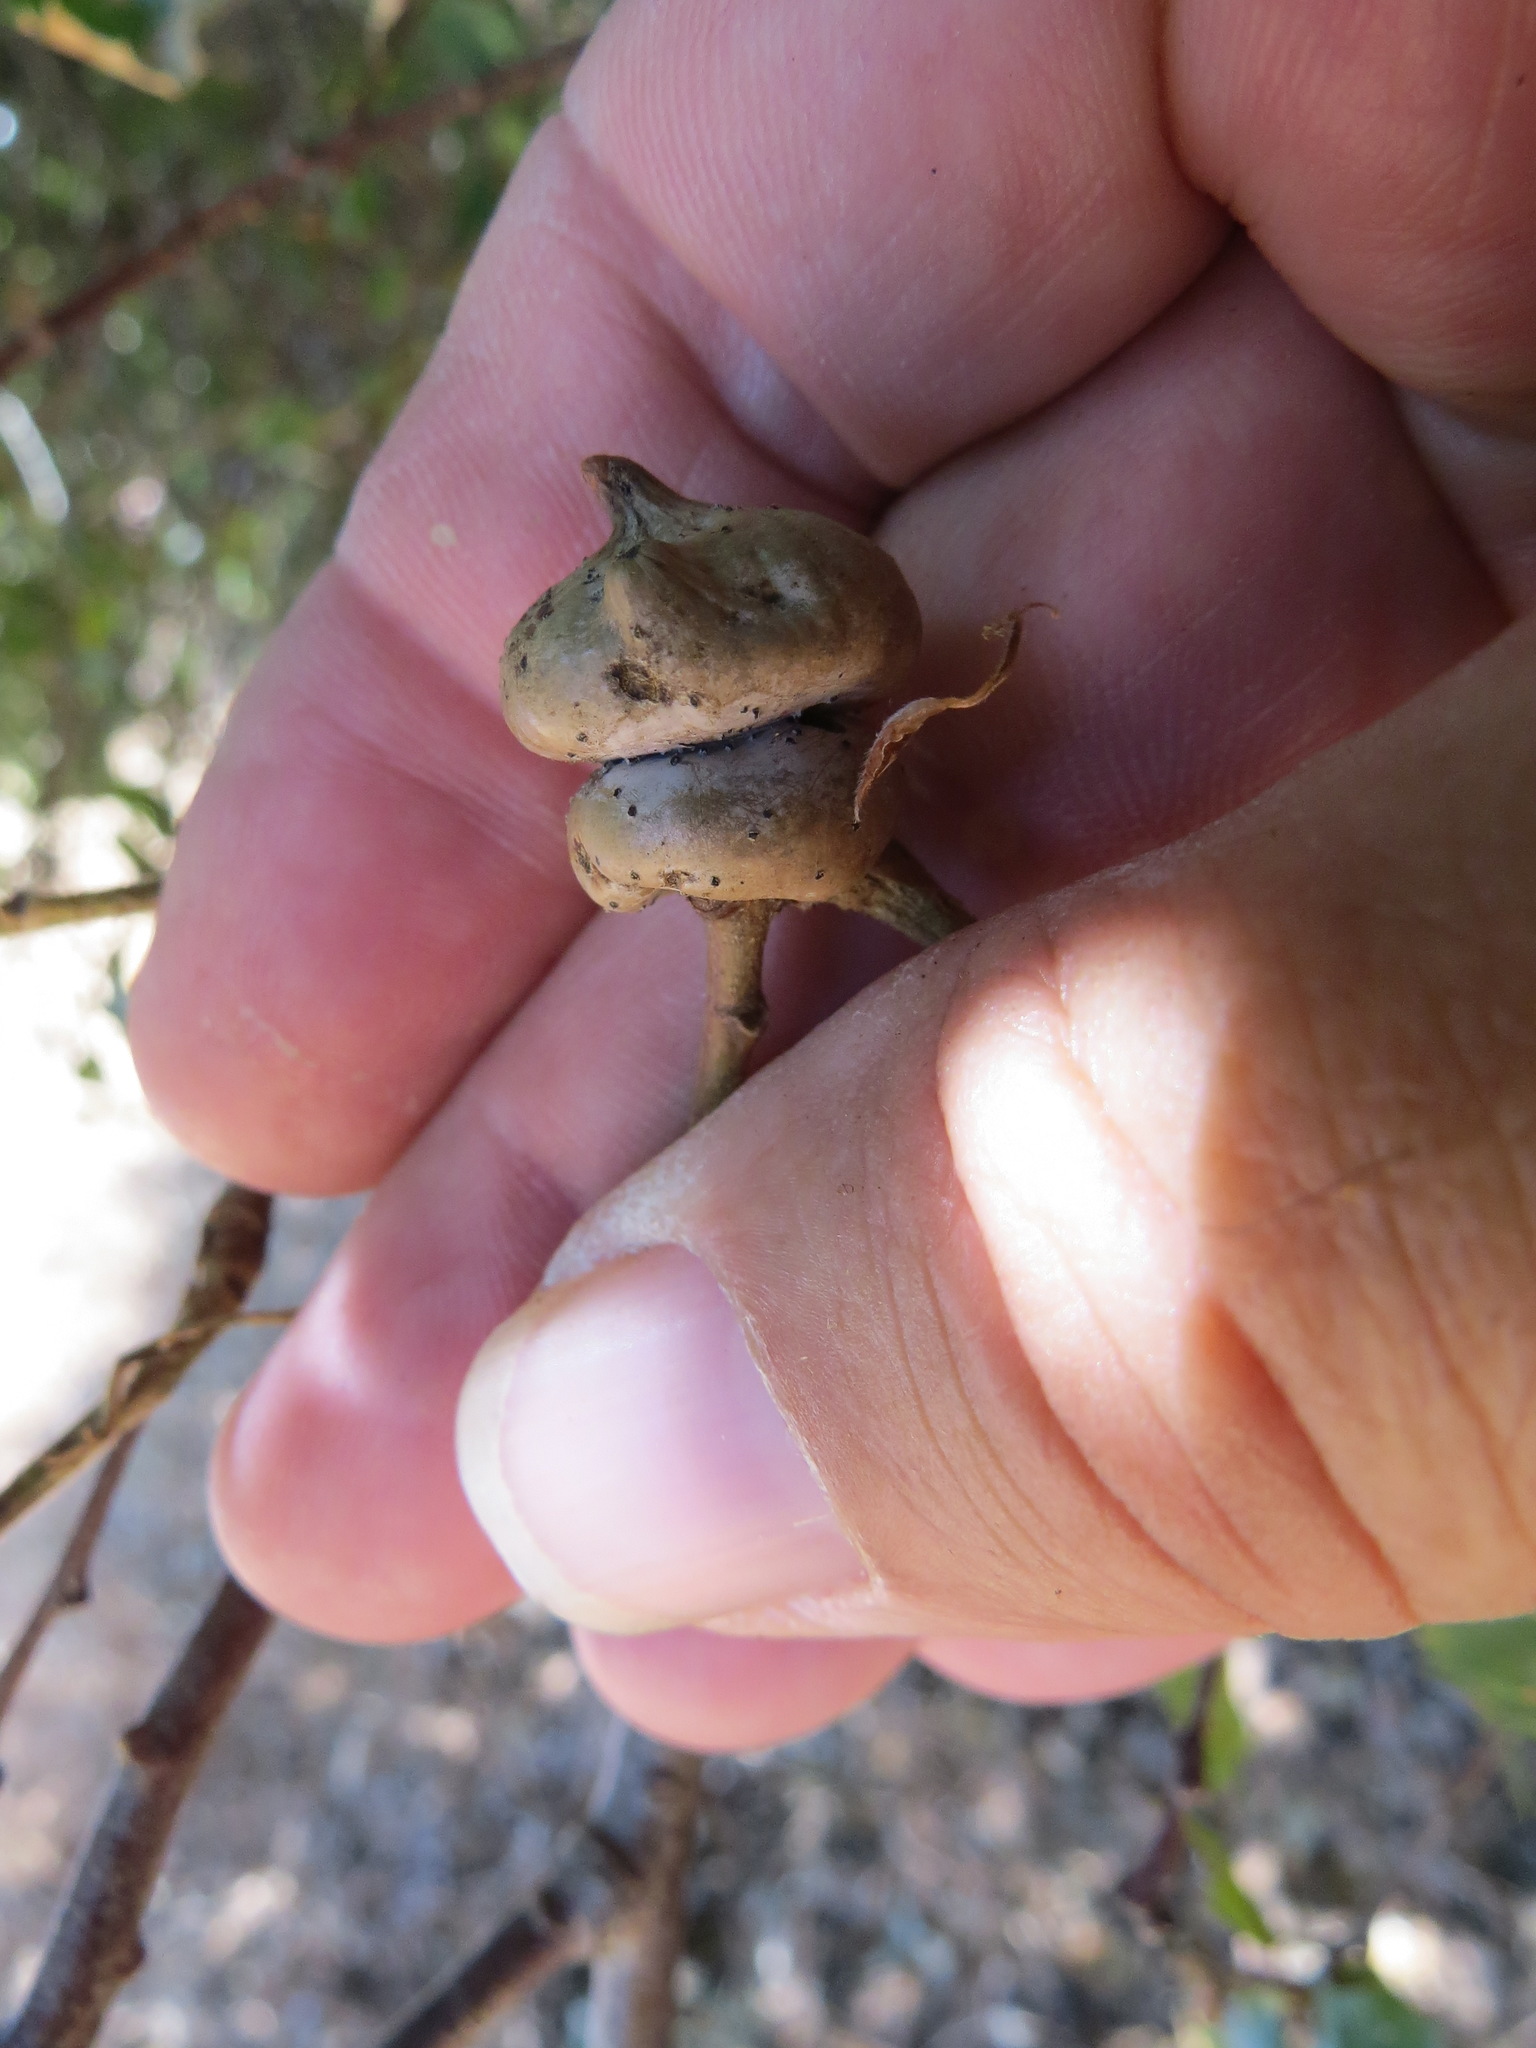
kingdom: Animalia
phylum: Arthropoda
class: Insecta
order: Hymenoptera
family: Cynipidae
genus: Heteroecus
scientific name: Heteroecus
